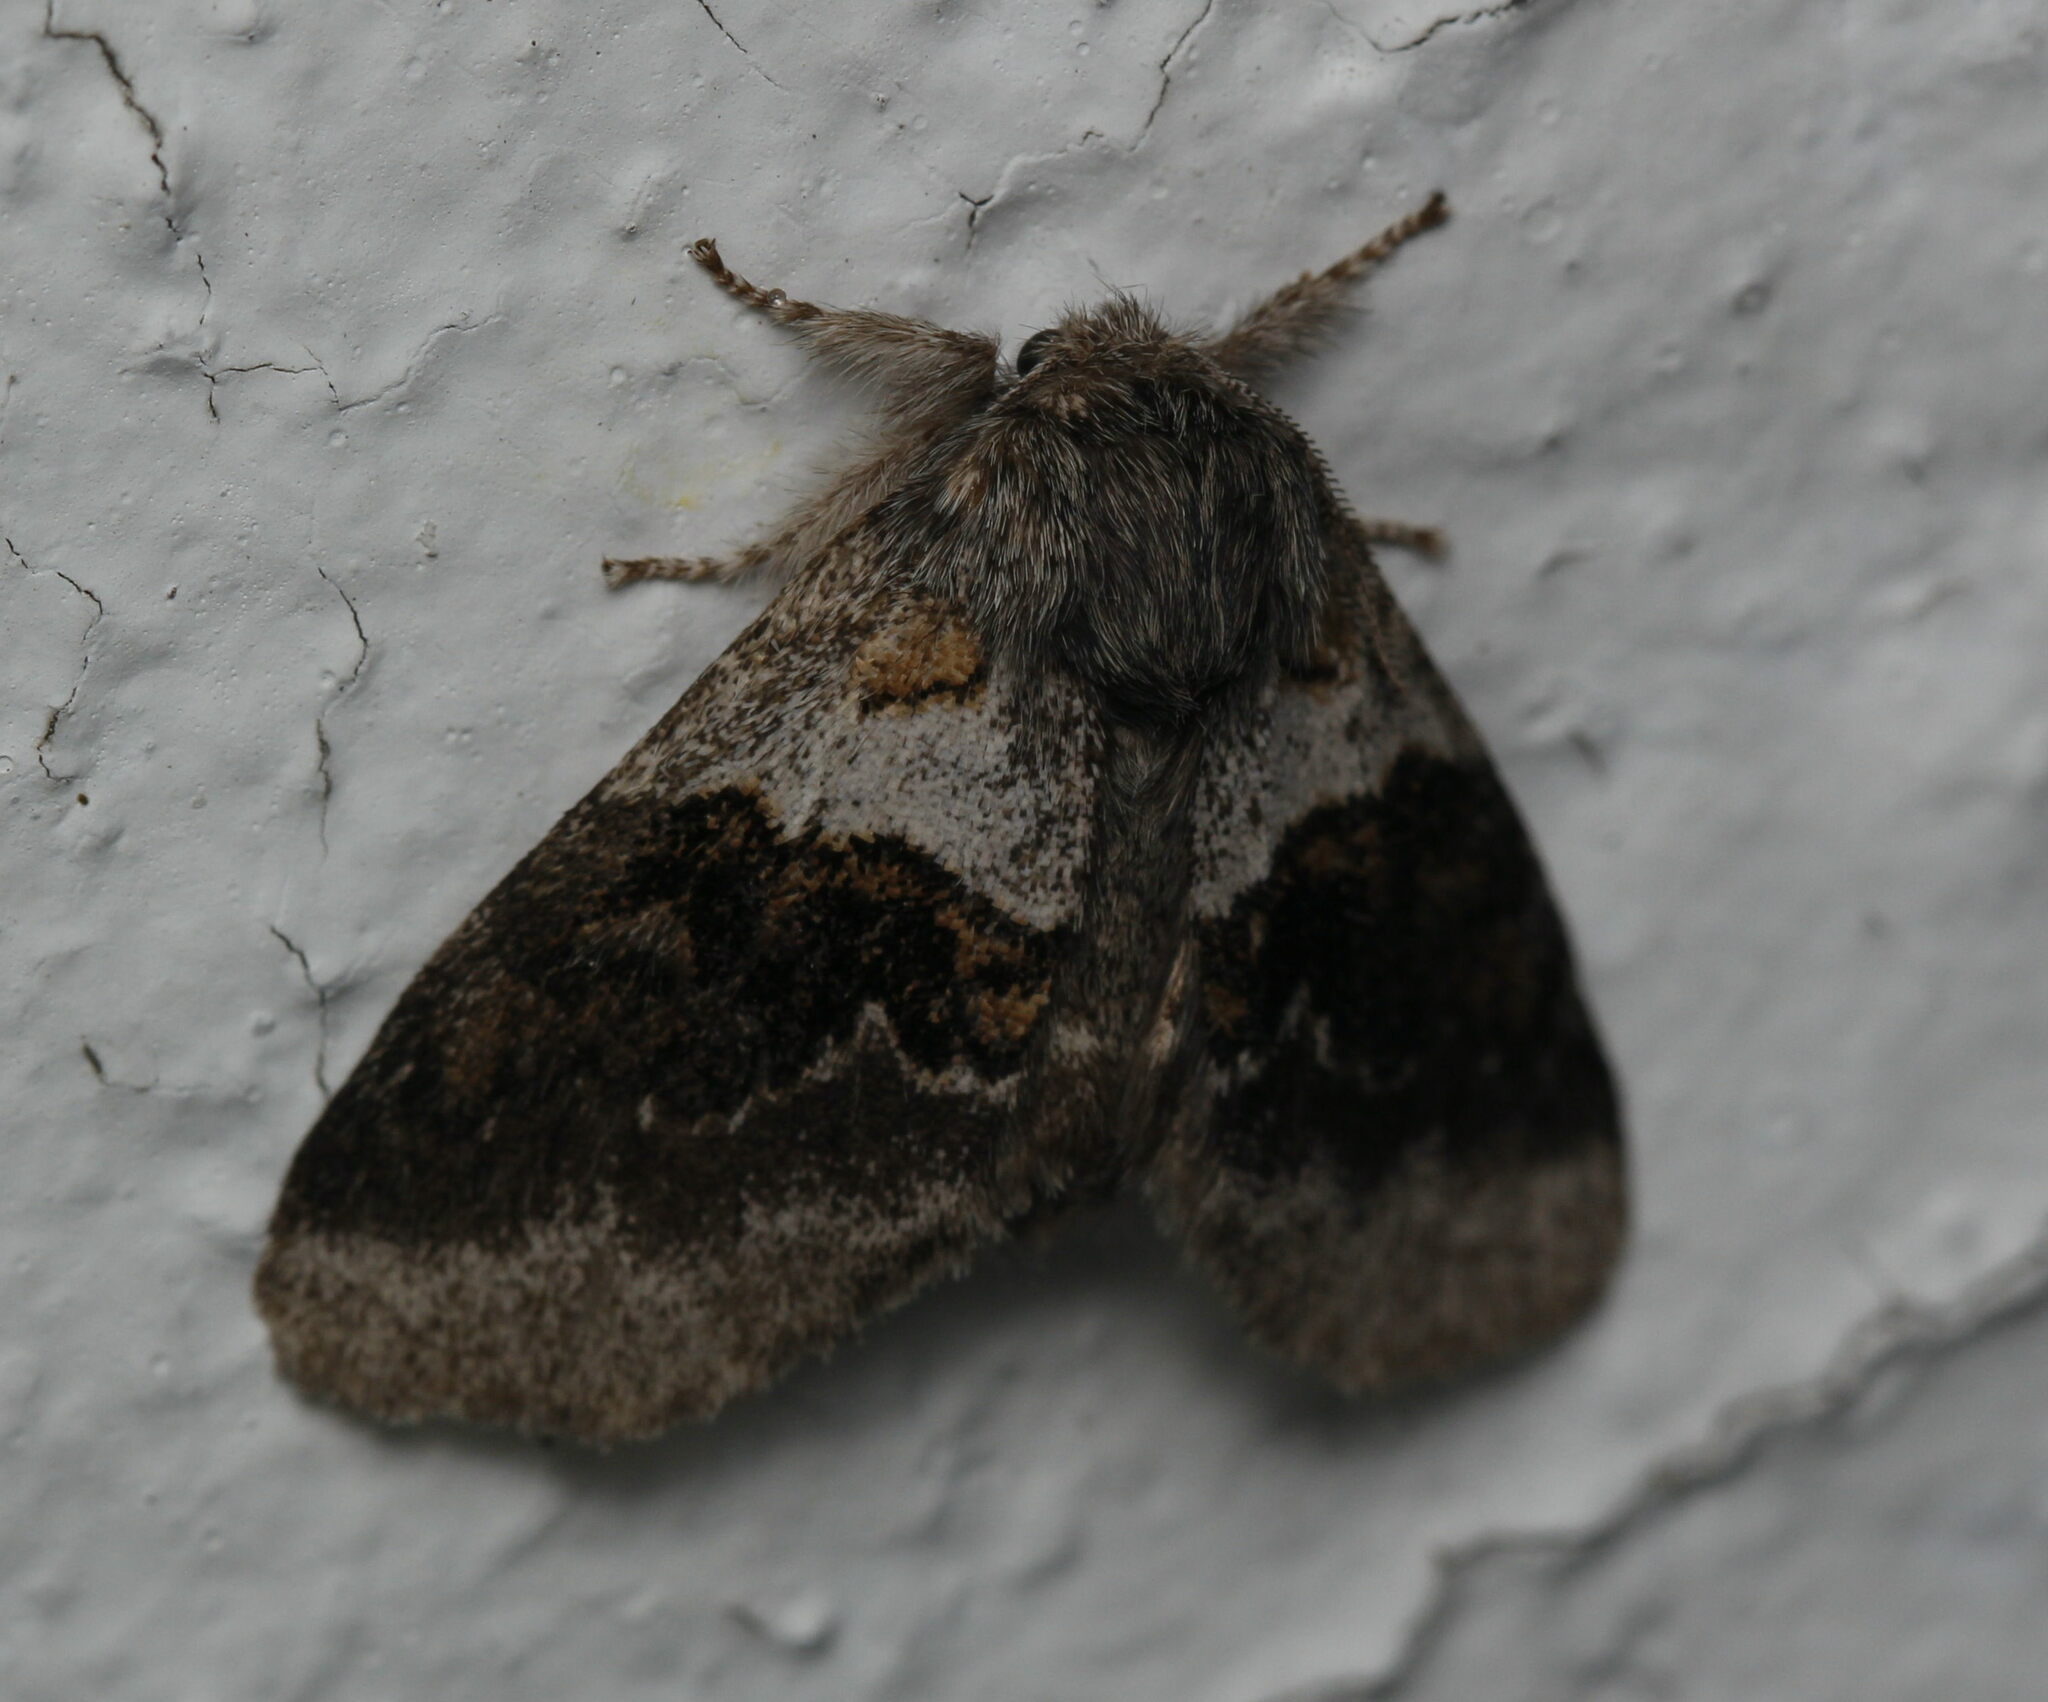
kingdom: Animalia
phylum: Arthropoda
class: Insecta
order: Lepidoptera
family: Notodontidae
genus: Gluphisia
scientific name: Gluphisia septentrionis
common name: Common gluphisia
